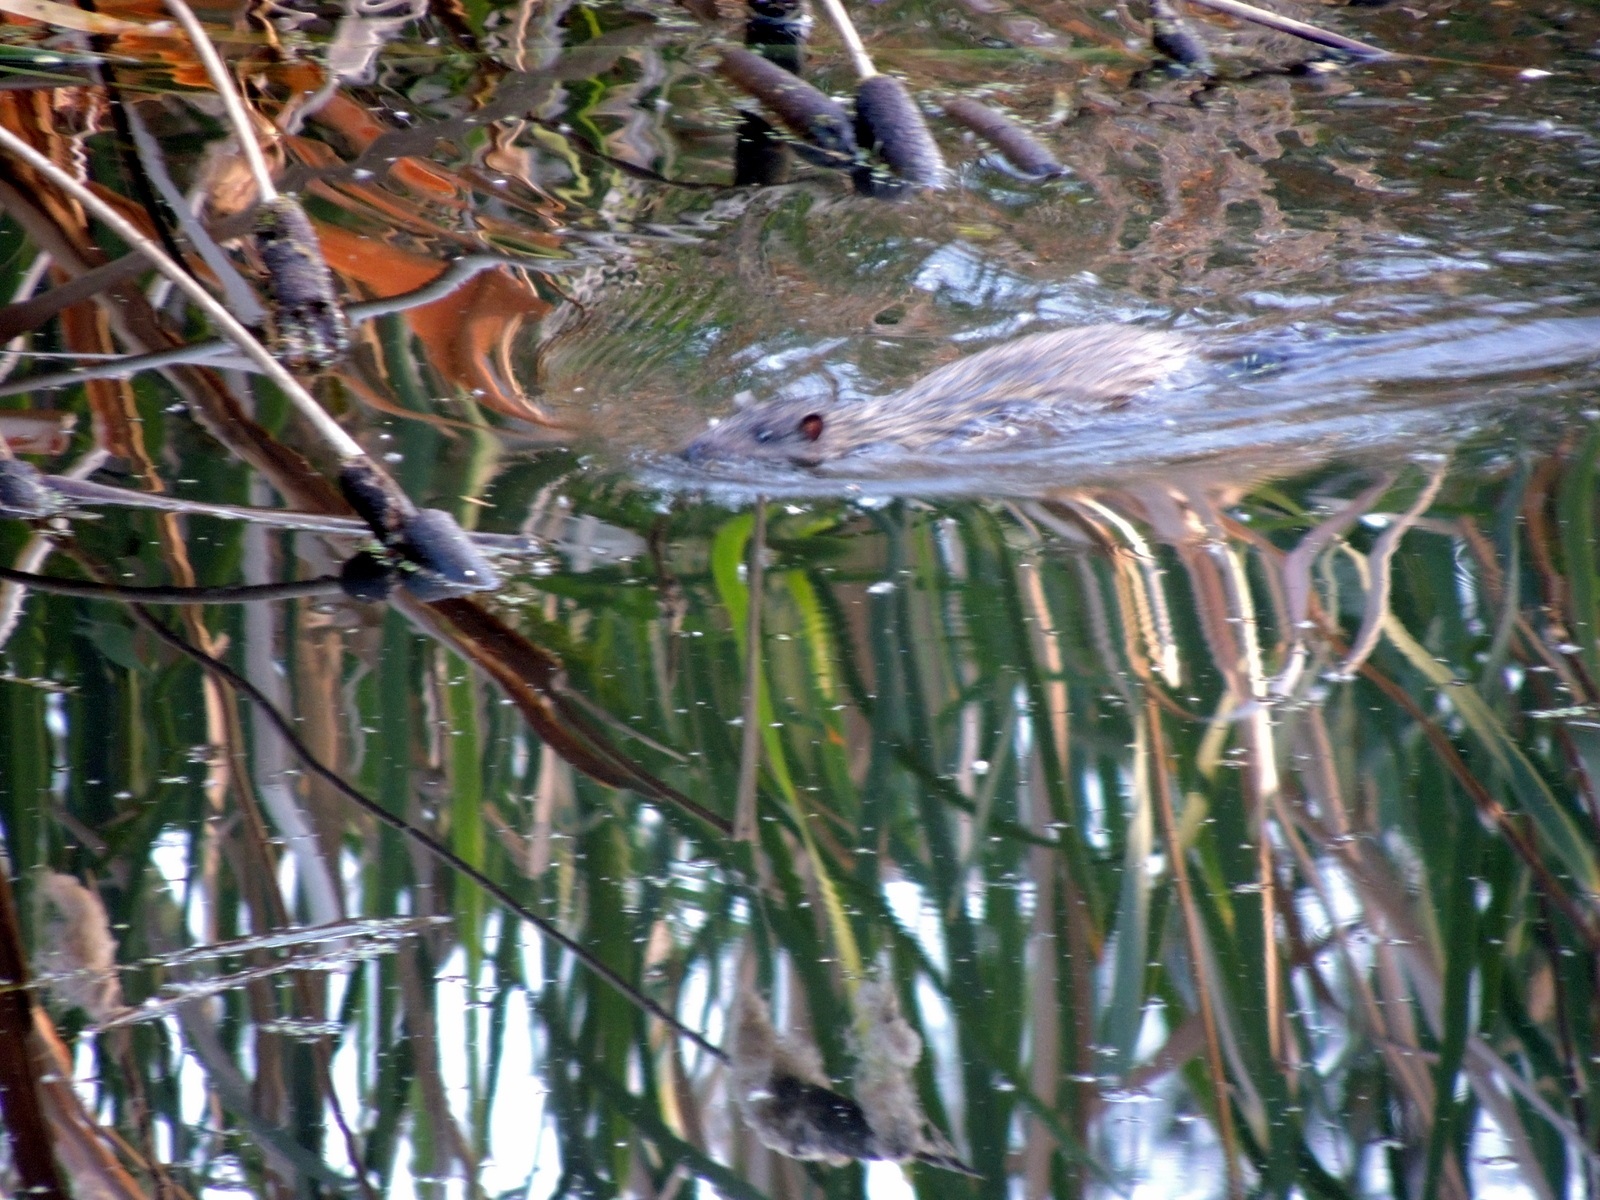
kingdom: Animalia
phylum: Chordata
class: Mammalia
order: Rodentia
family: Muridae
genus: Hydromys
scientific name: Hydromys chrysogaster
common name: Common water rat
